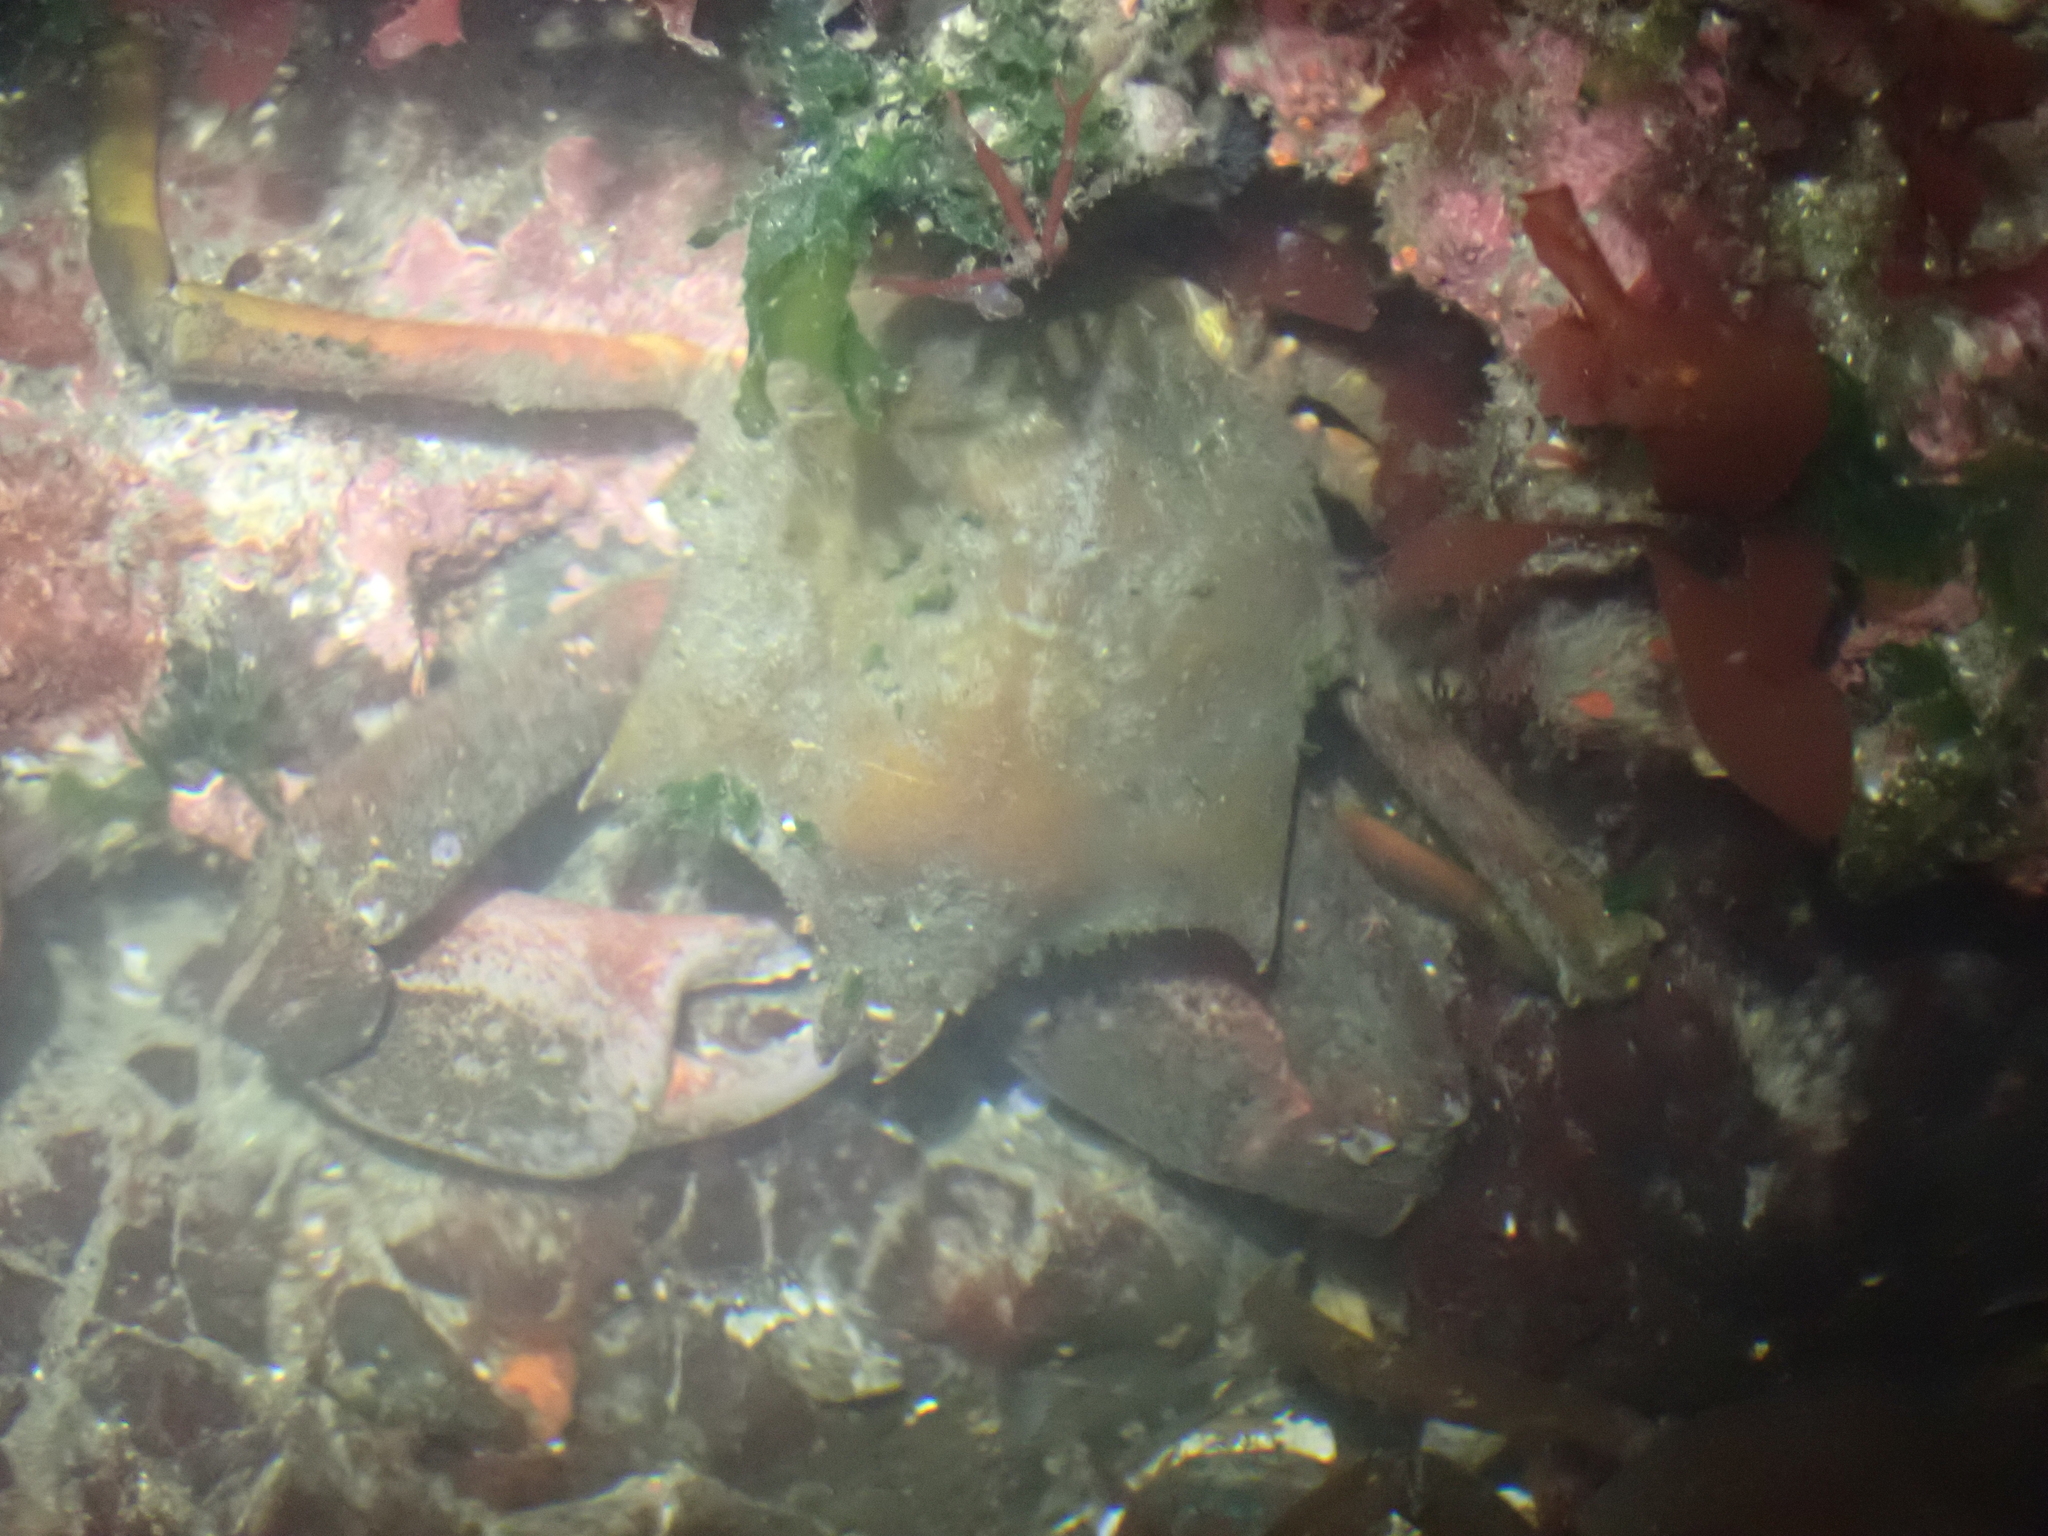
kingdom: Animalia
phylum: Arthropoda
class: Malacostraca
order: Decapoda
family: Epialtidae
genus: Pugettia
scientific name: Pugettia producta
